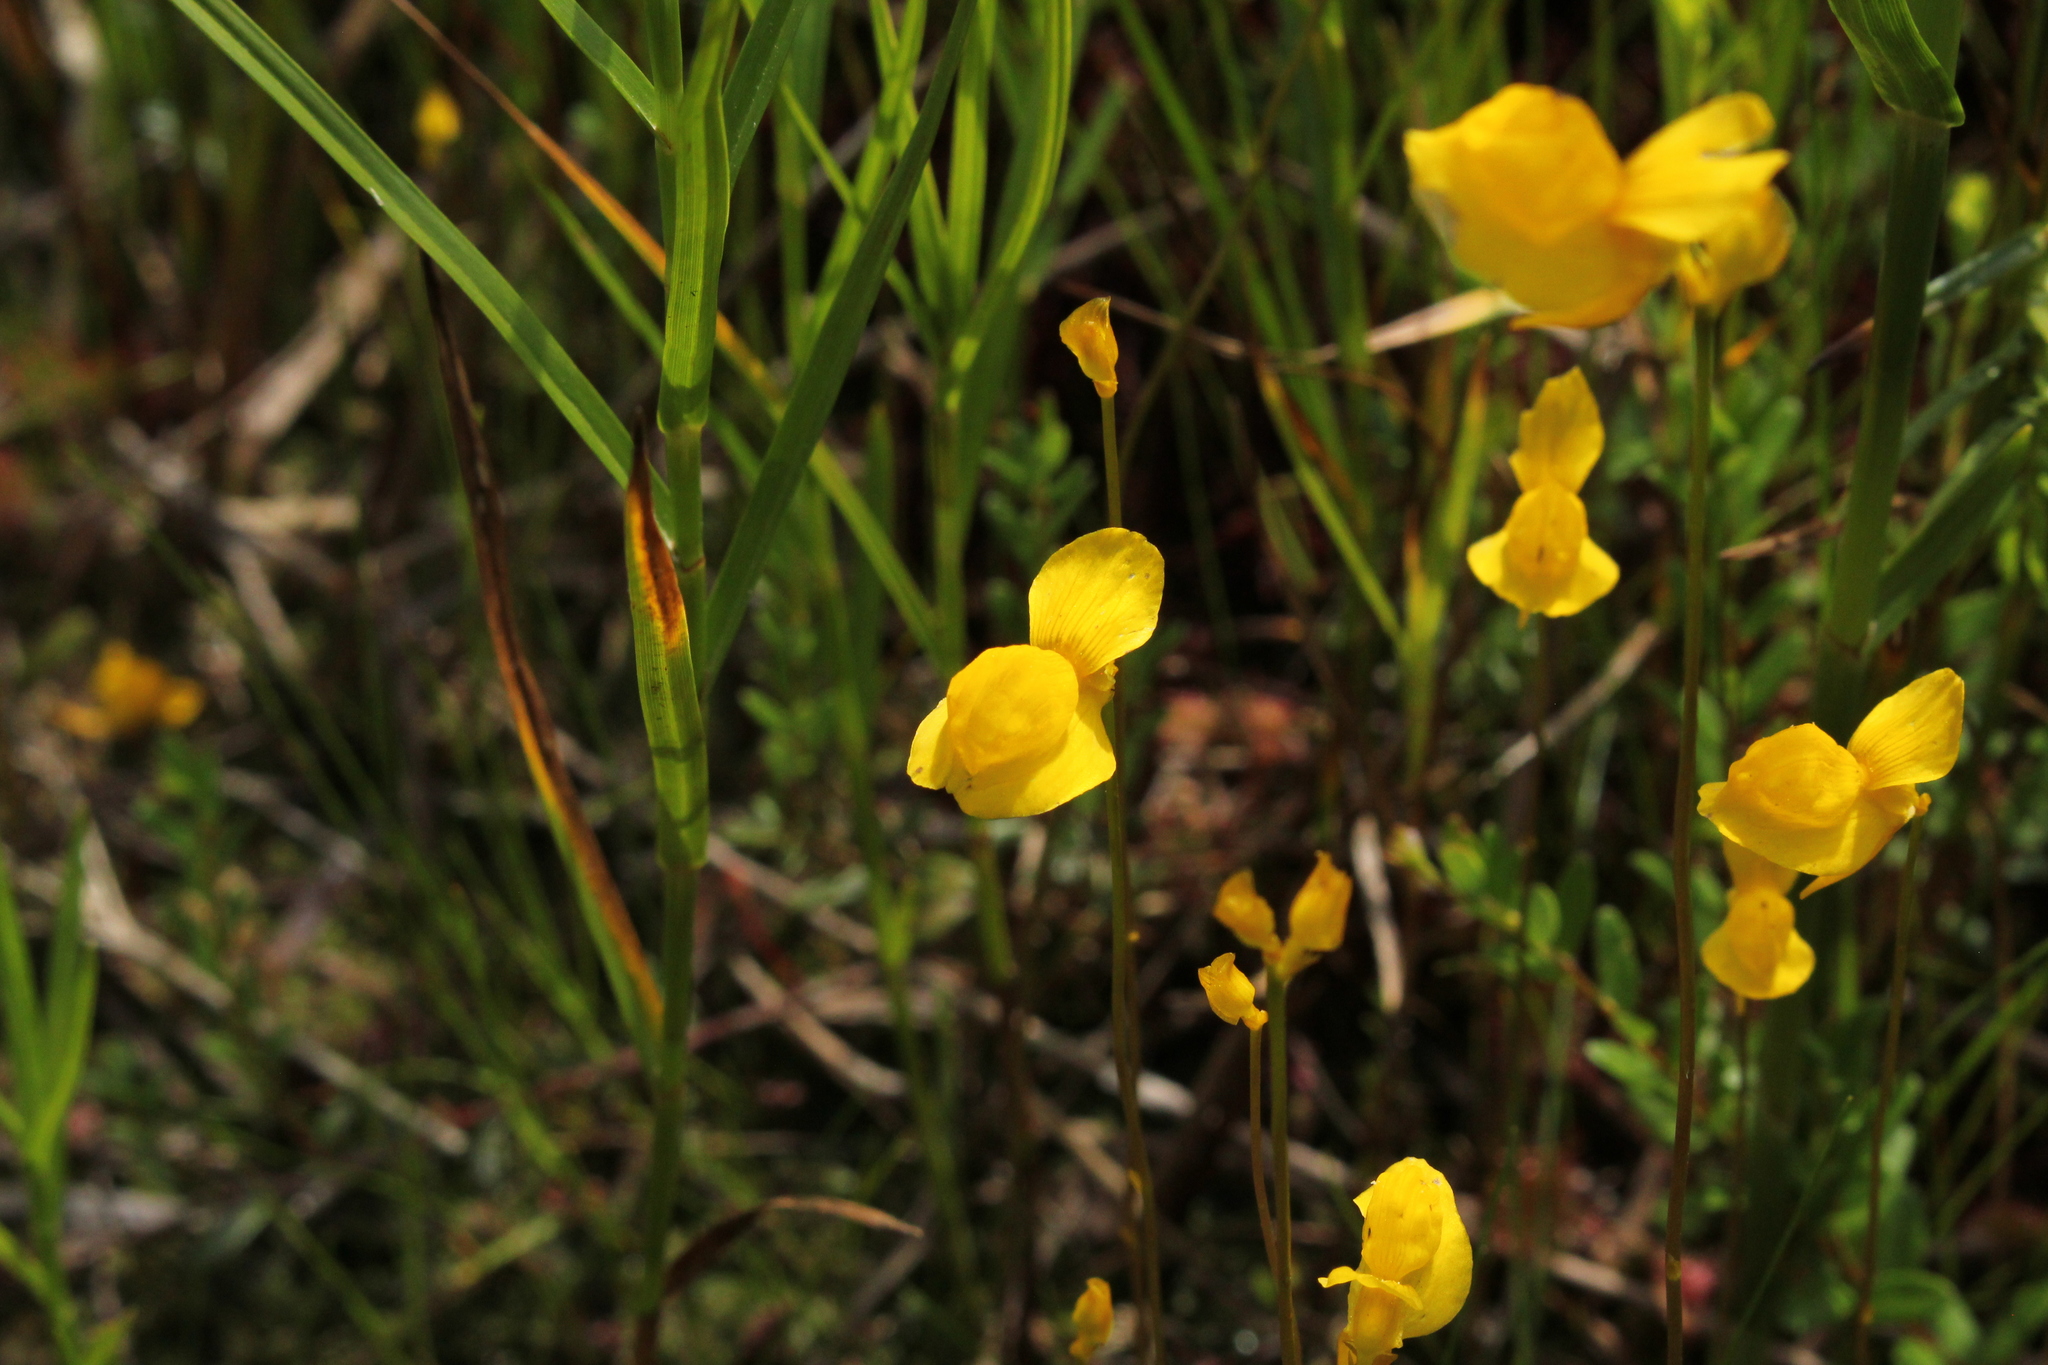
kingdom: Plantae
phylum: Tracheophyta
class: Magnoliopsida
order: Lamiales
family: Lentibulariaceae
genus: Utricularia
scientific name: Utricularia cornuta
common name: Horned bladderwort
